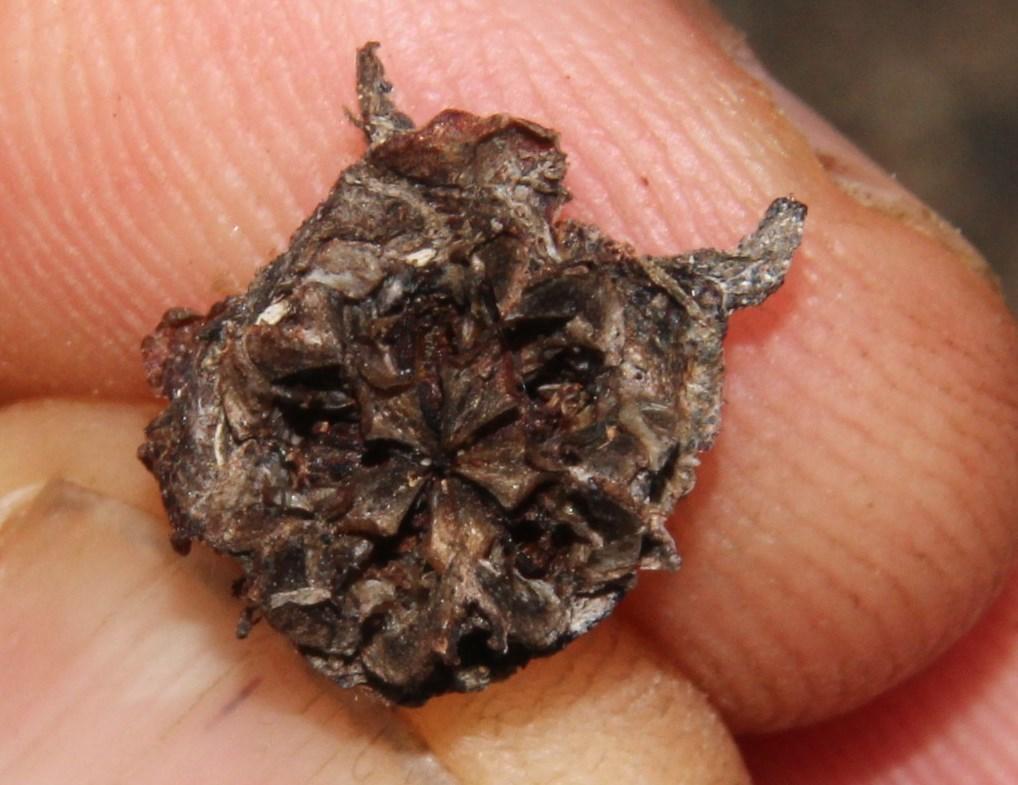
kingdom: Plantae
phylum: Tracheophyta
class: Magnoliopsida
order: Caryophyllales
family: Aizoaceae
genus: Oscularia
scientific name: Oscularia falciformis
